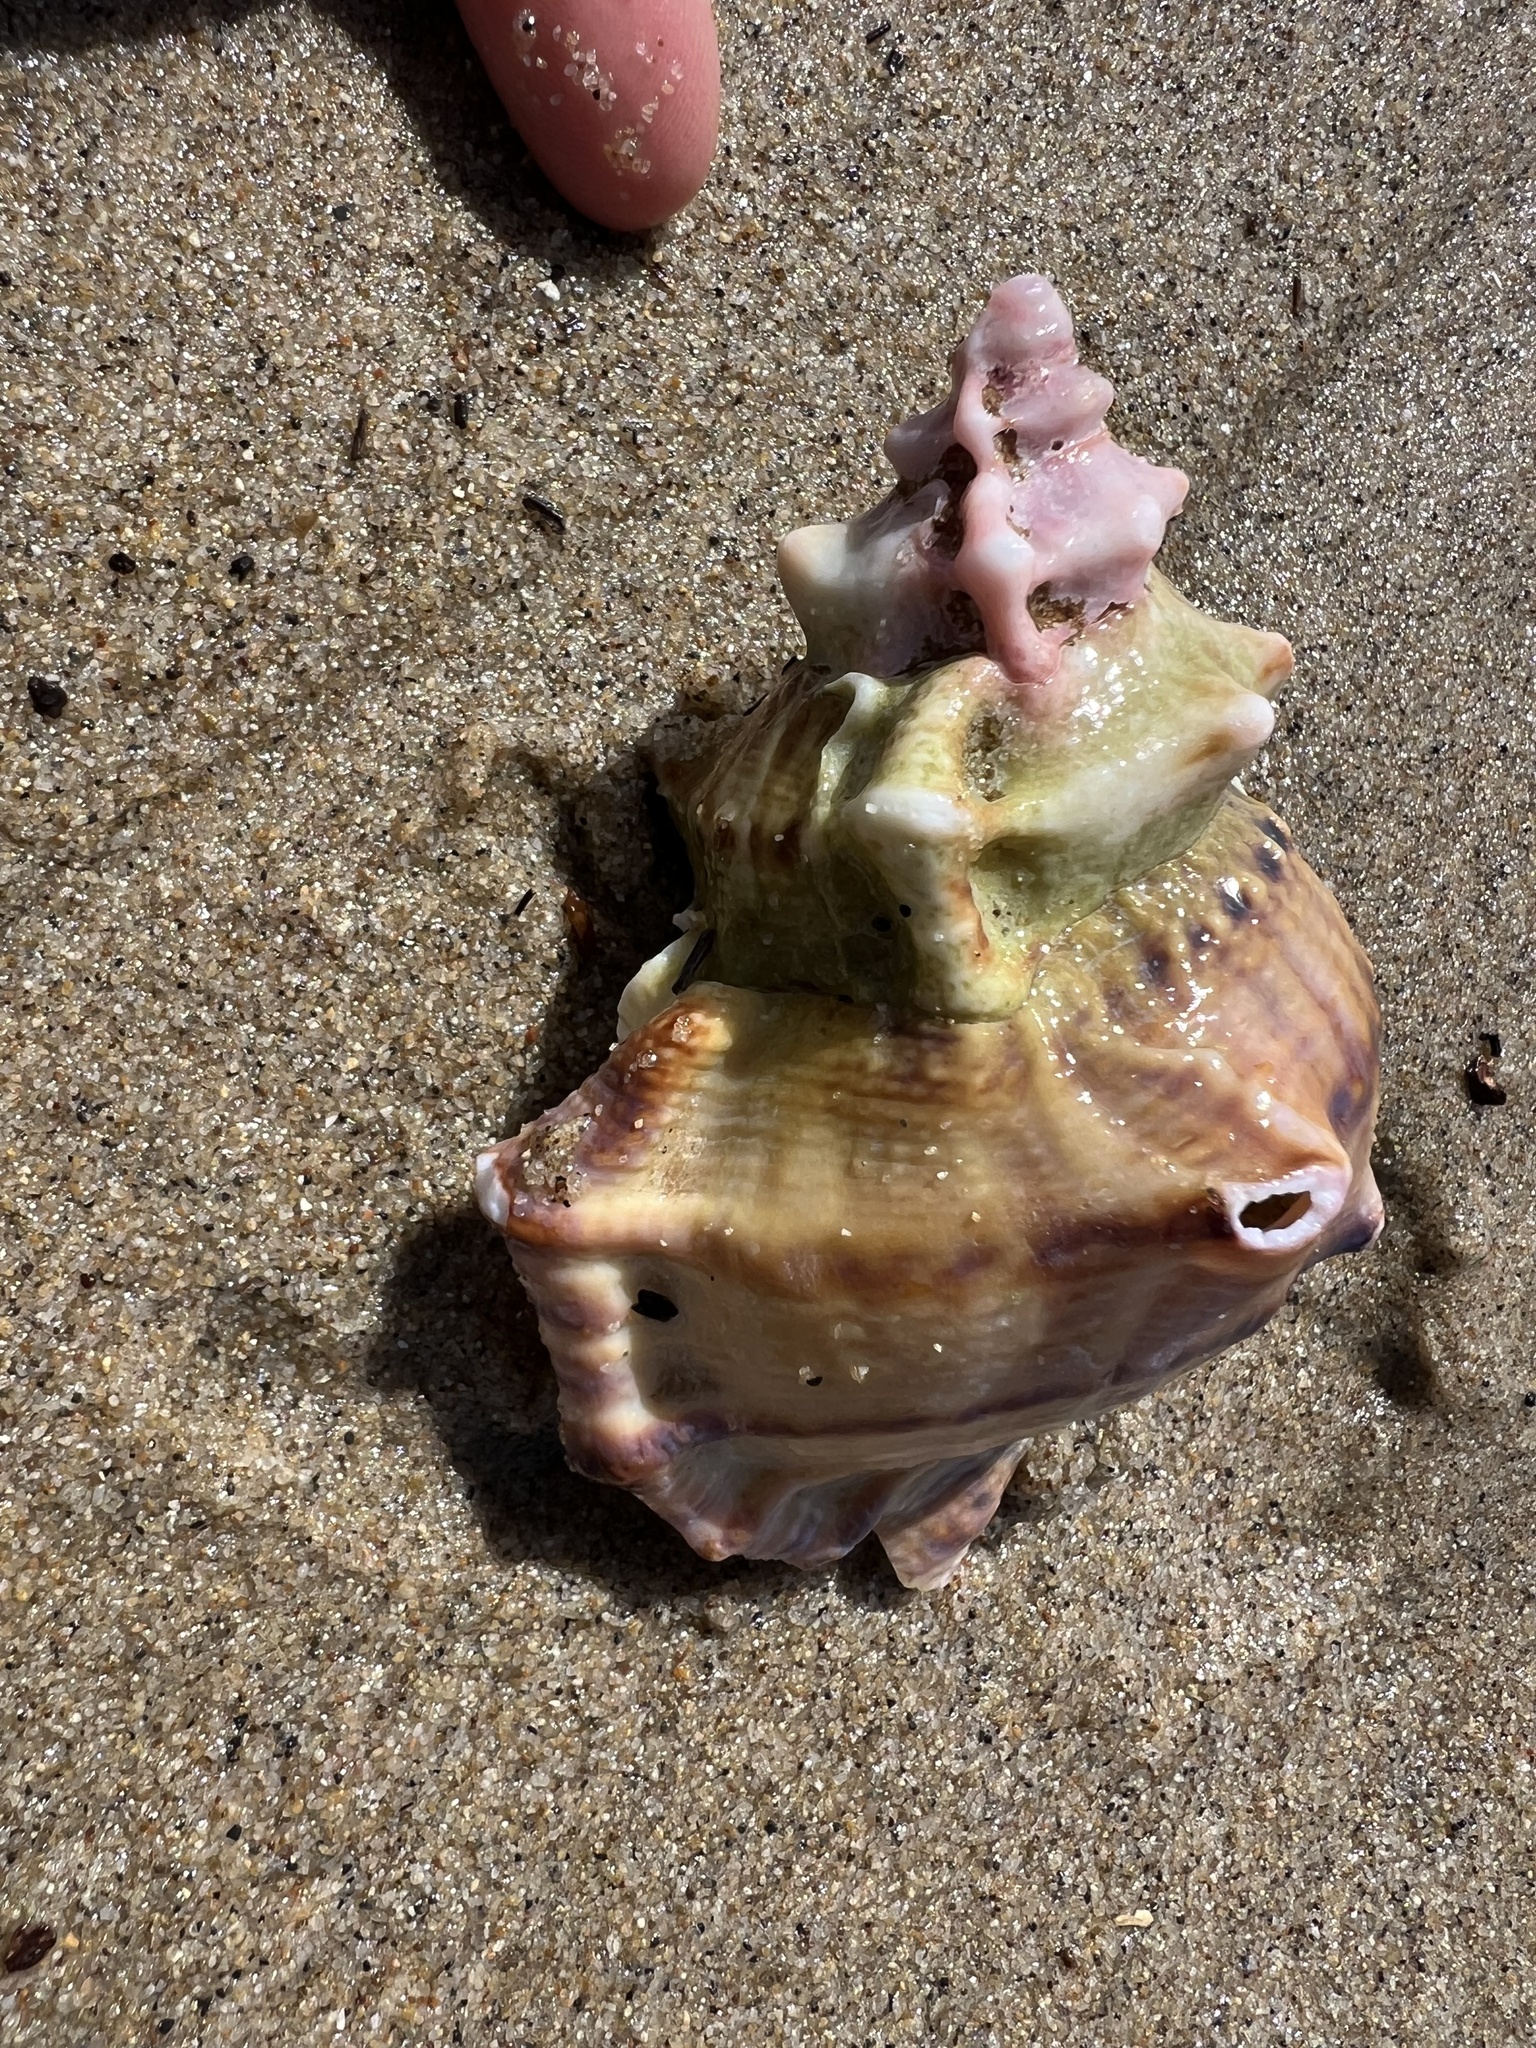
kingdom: Animalia
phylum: Mollusca
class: Gastropoda
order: Littorinimorpha
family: Bursidae
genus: Crossata
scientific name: Crossata californica
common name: California frogsnail
